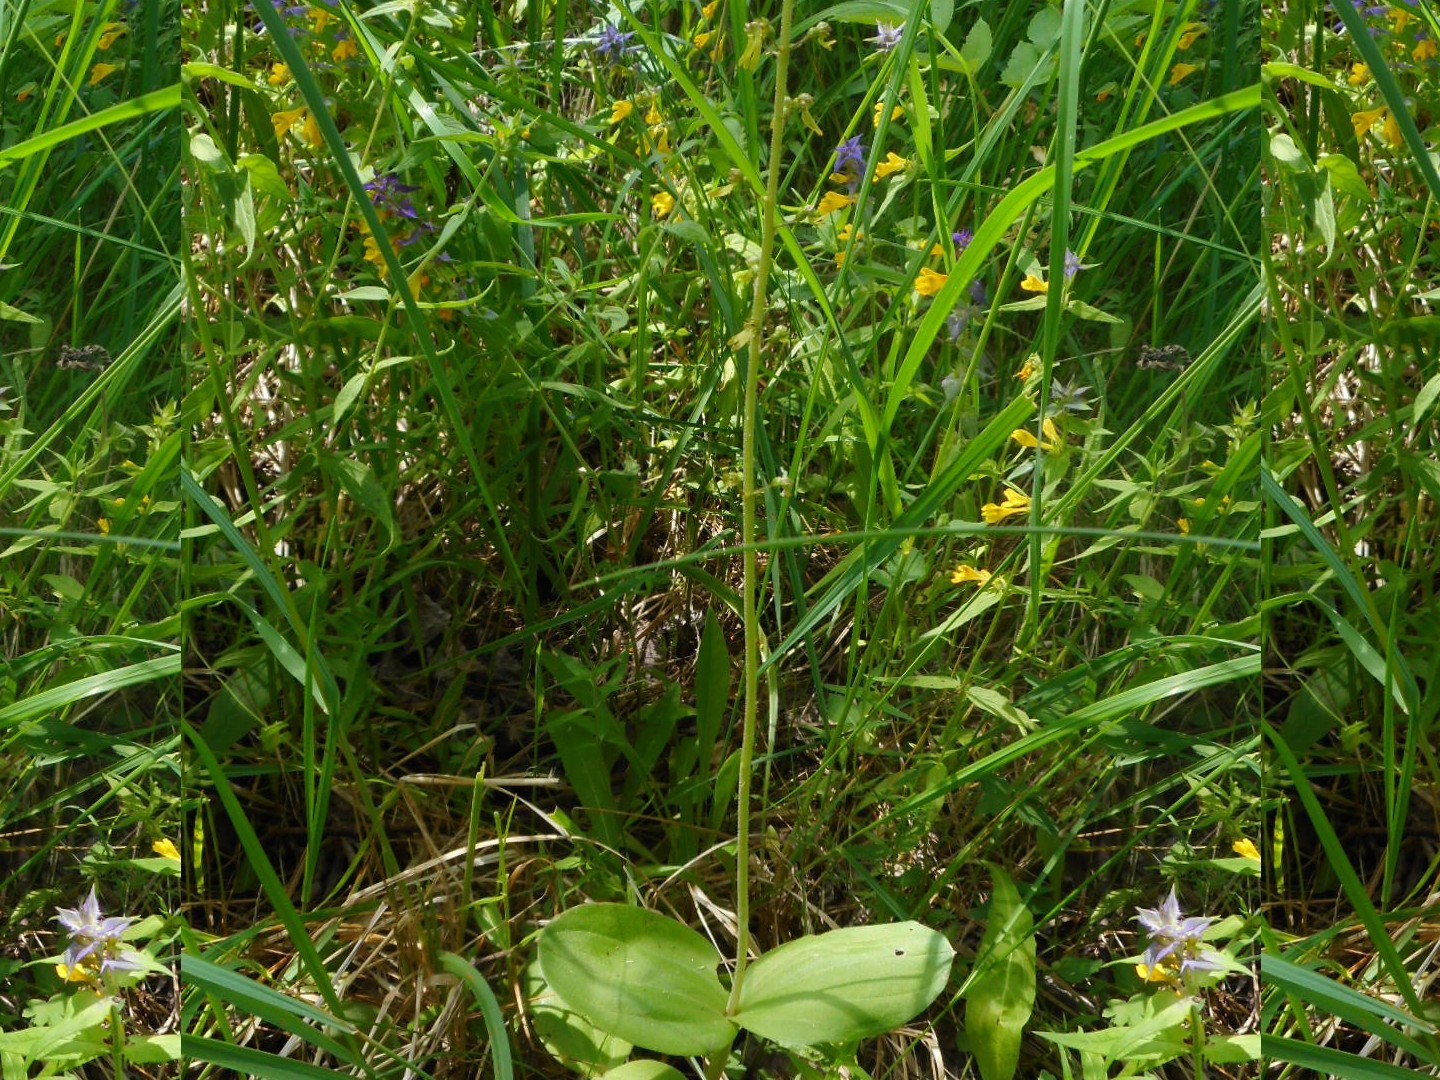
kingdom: Plantae
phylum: Tracheophyta
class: Liliopsida
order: Asparagales
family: Orchidaceae
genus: Neottia
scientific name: Neottia ovata
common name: Common twayblade
